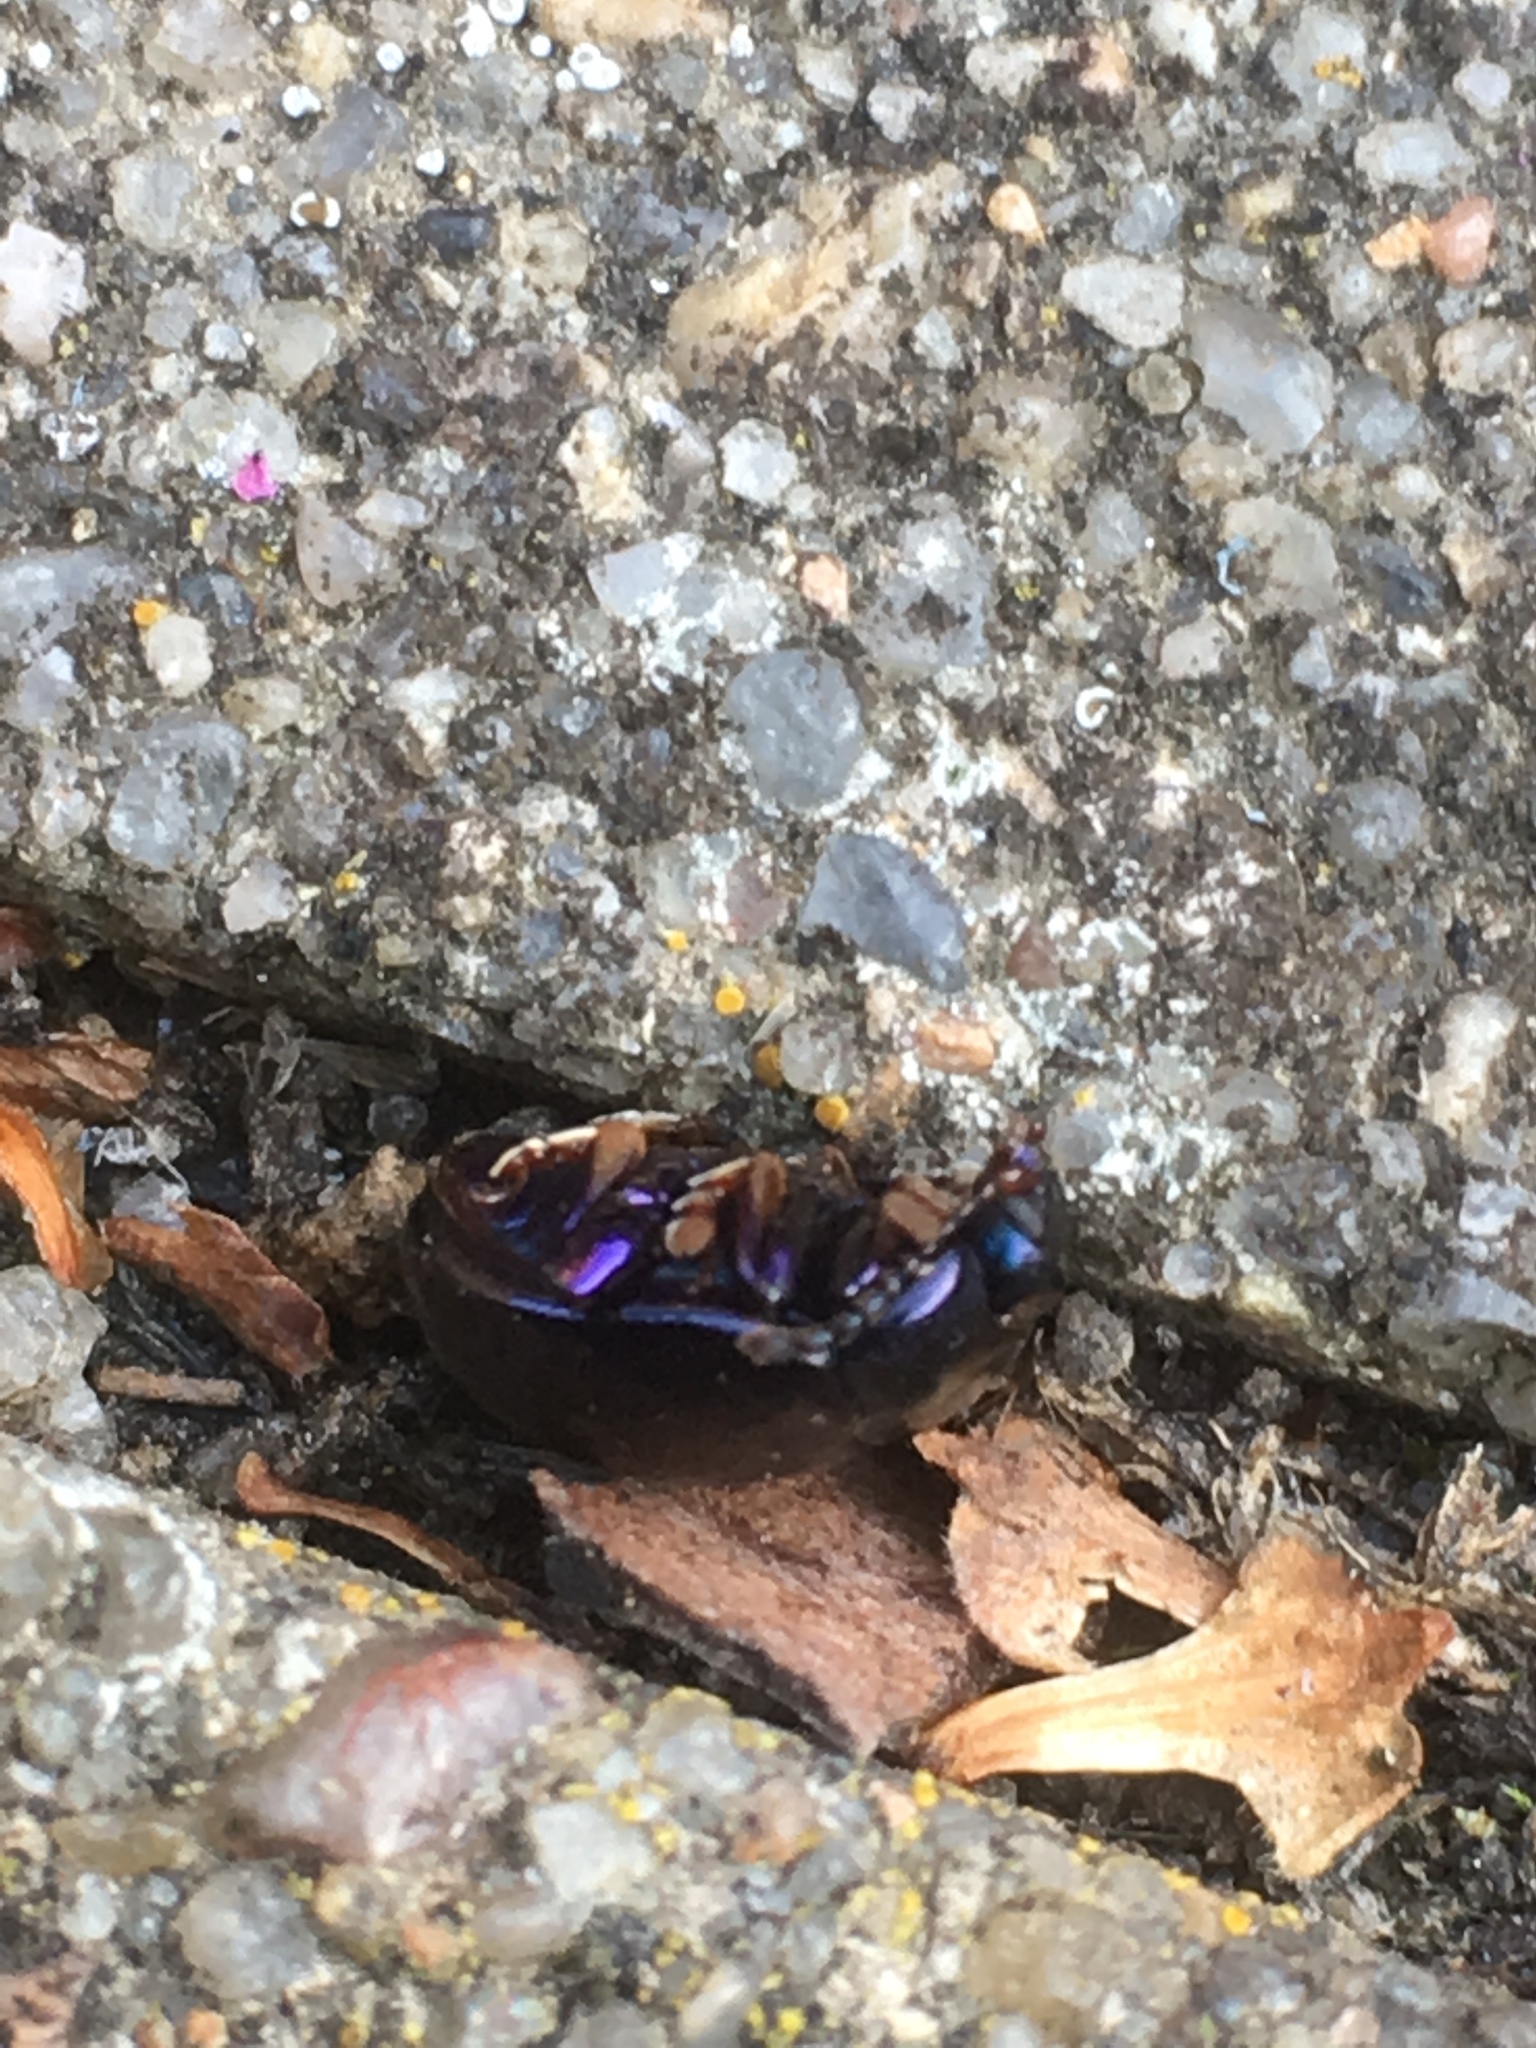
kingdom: Animalia
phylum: Arthropoda
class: Insecta
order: Coleoptera
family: Chrysomelidae
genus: Chrysolina
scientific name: Chrysolina sturmi
